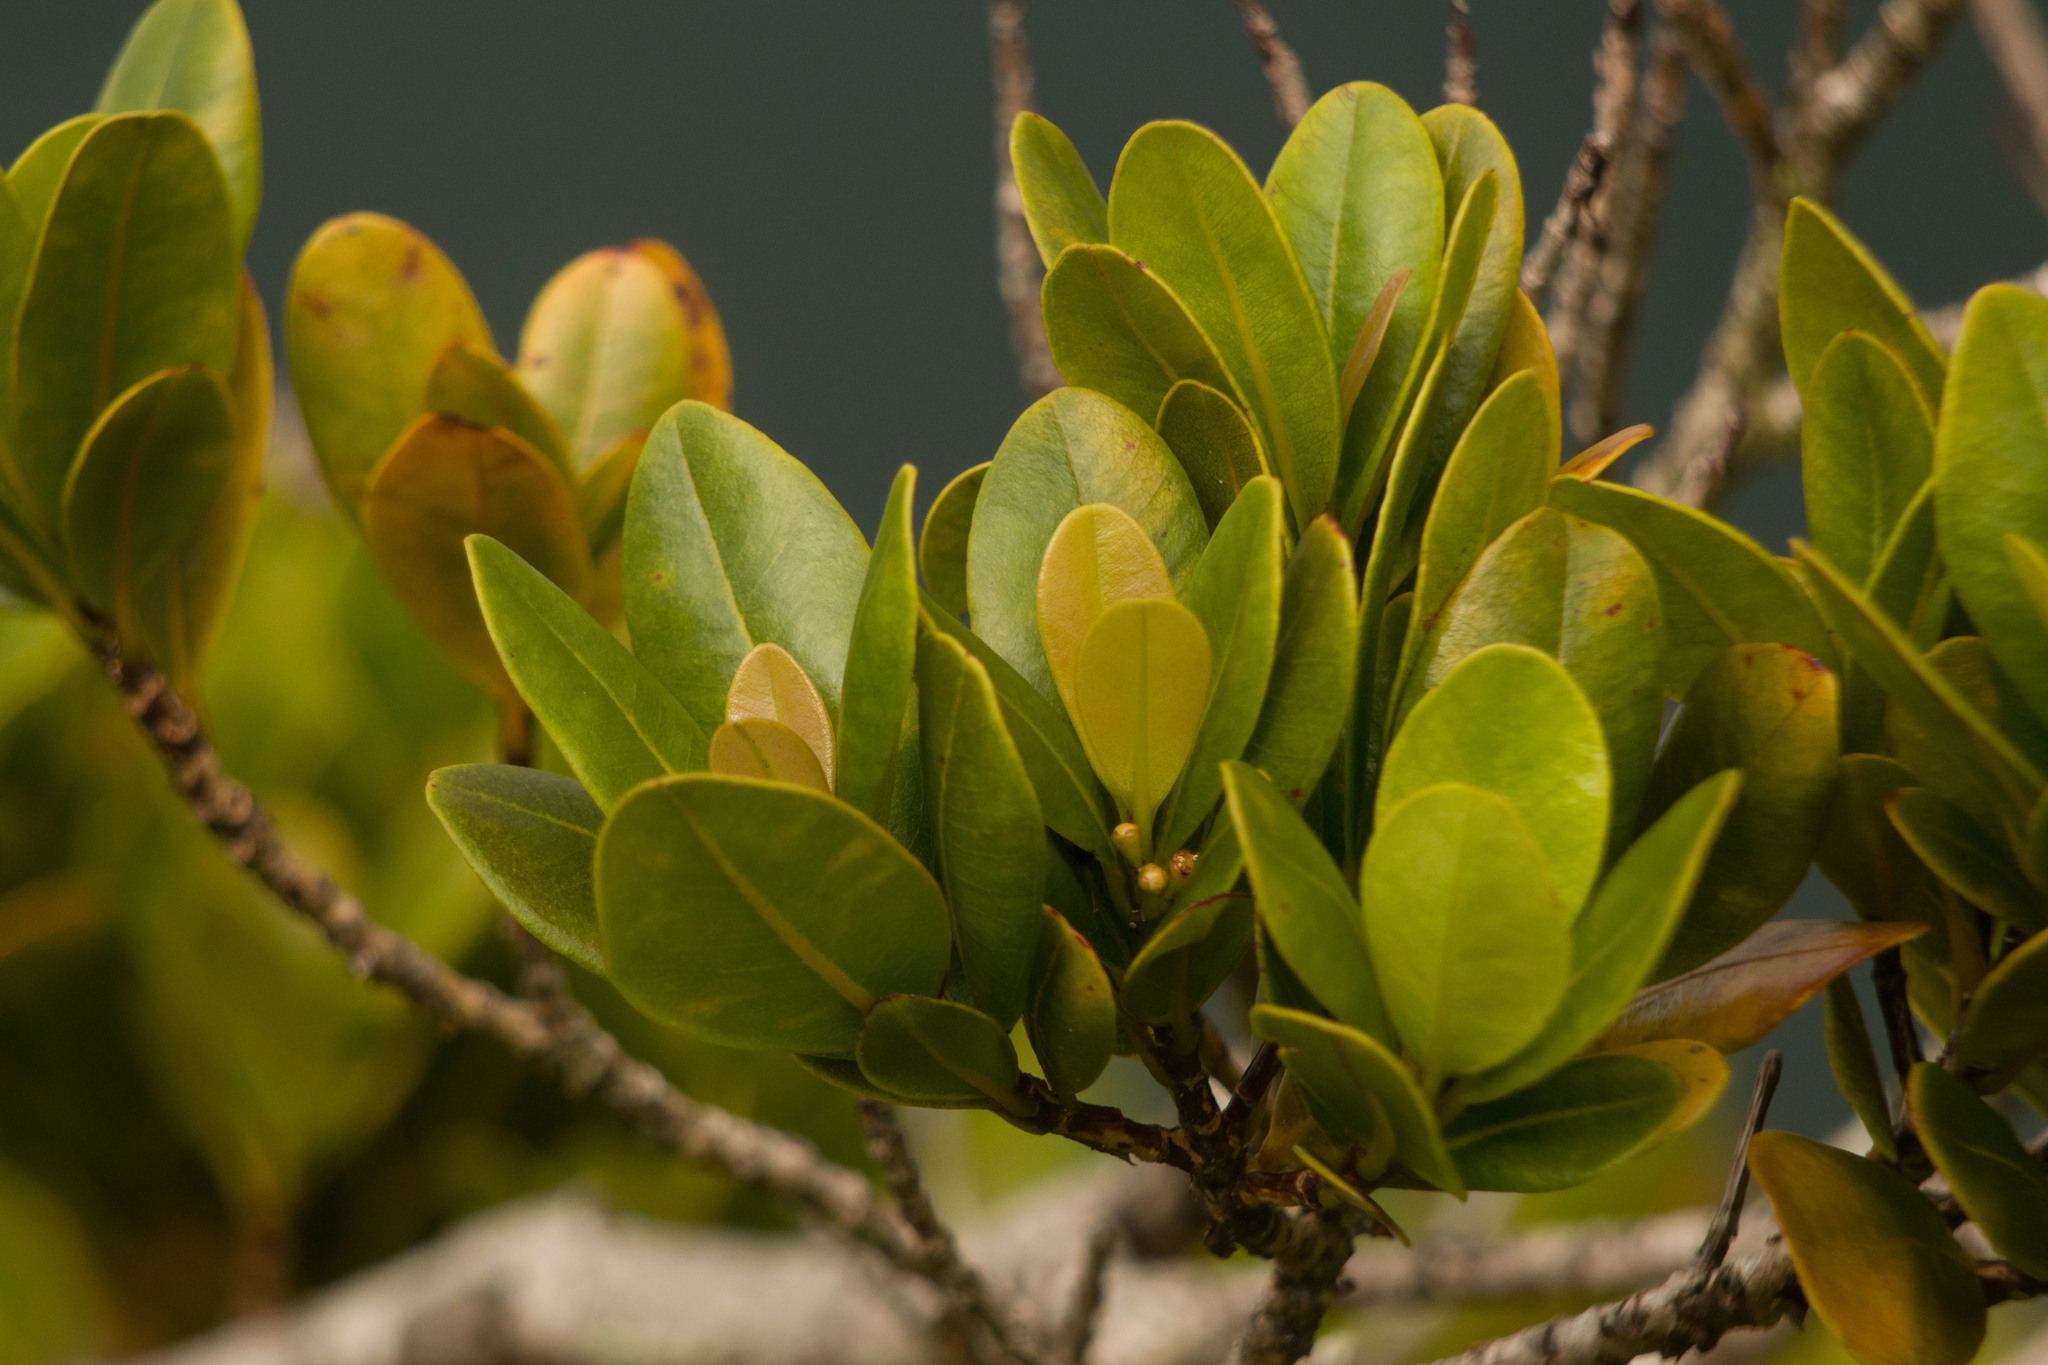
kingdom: Plantae
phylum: Tracheophyta
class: Magnoliopsida
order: Myrtales
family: Myrtaceae
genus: Syzygium
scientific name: Syzygium sandwicense
